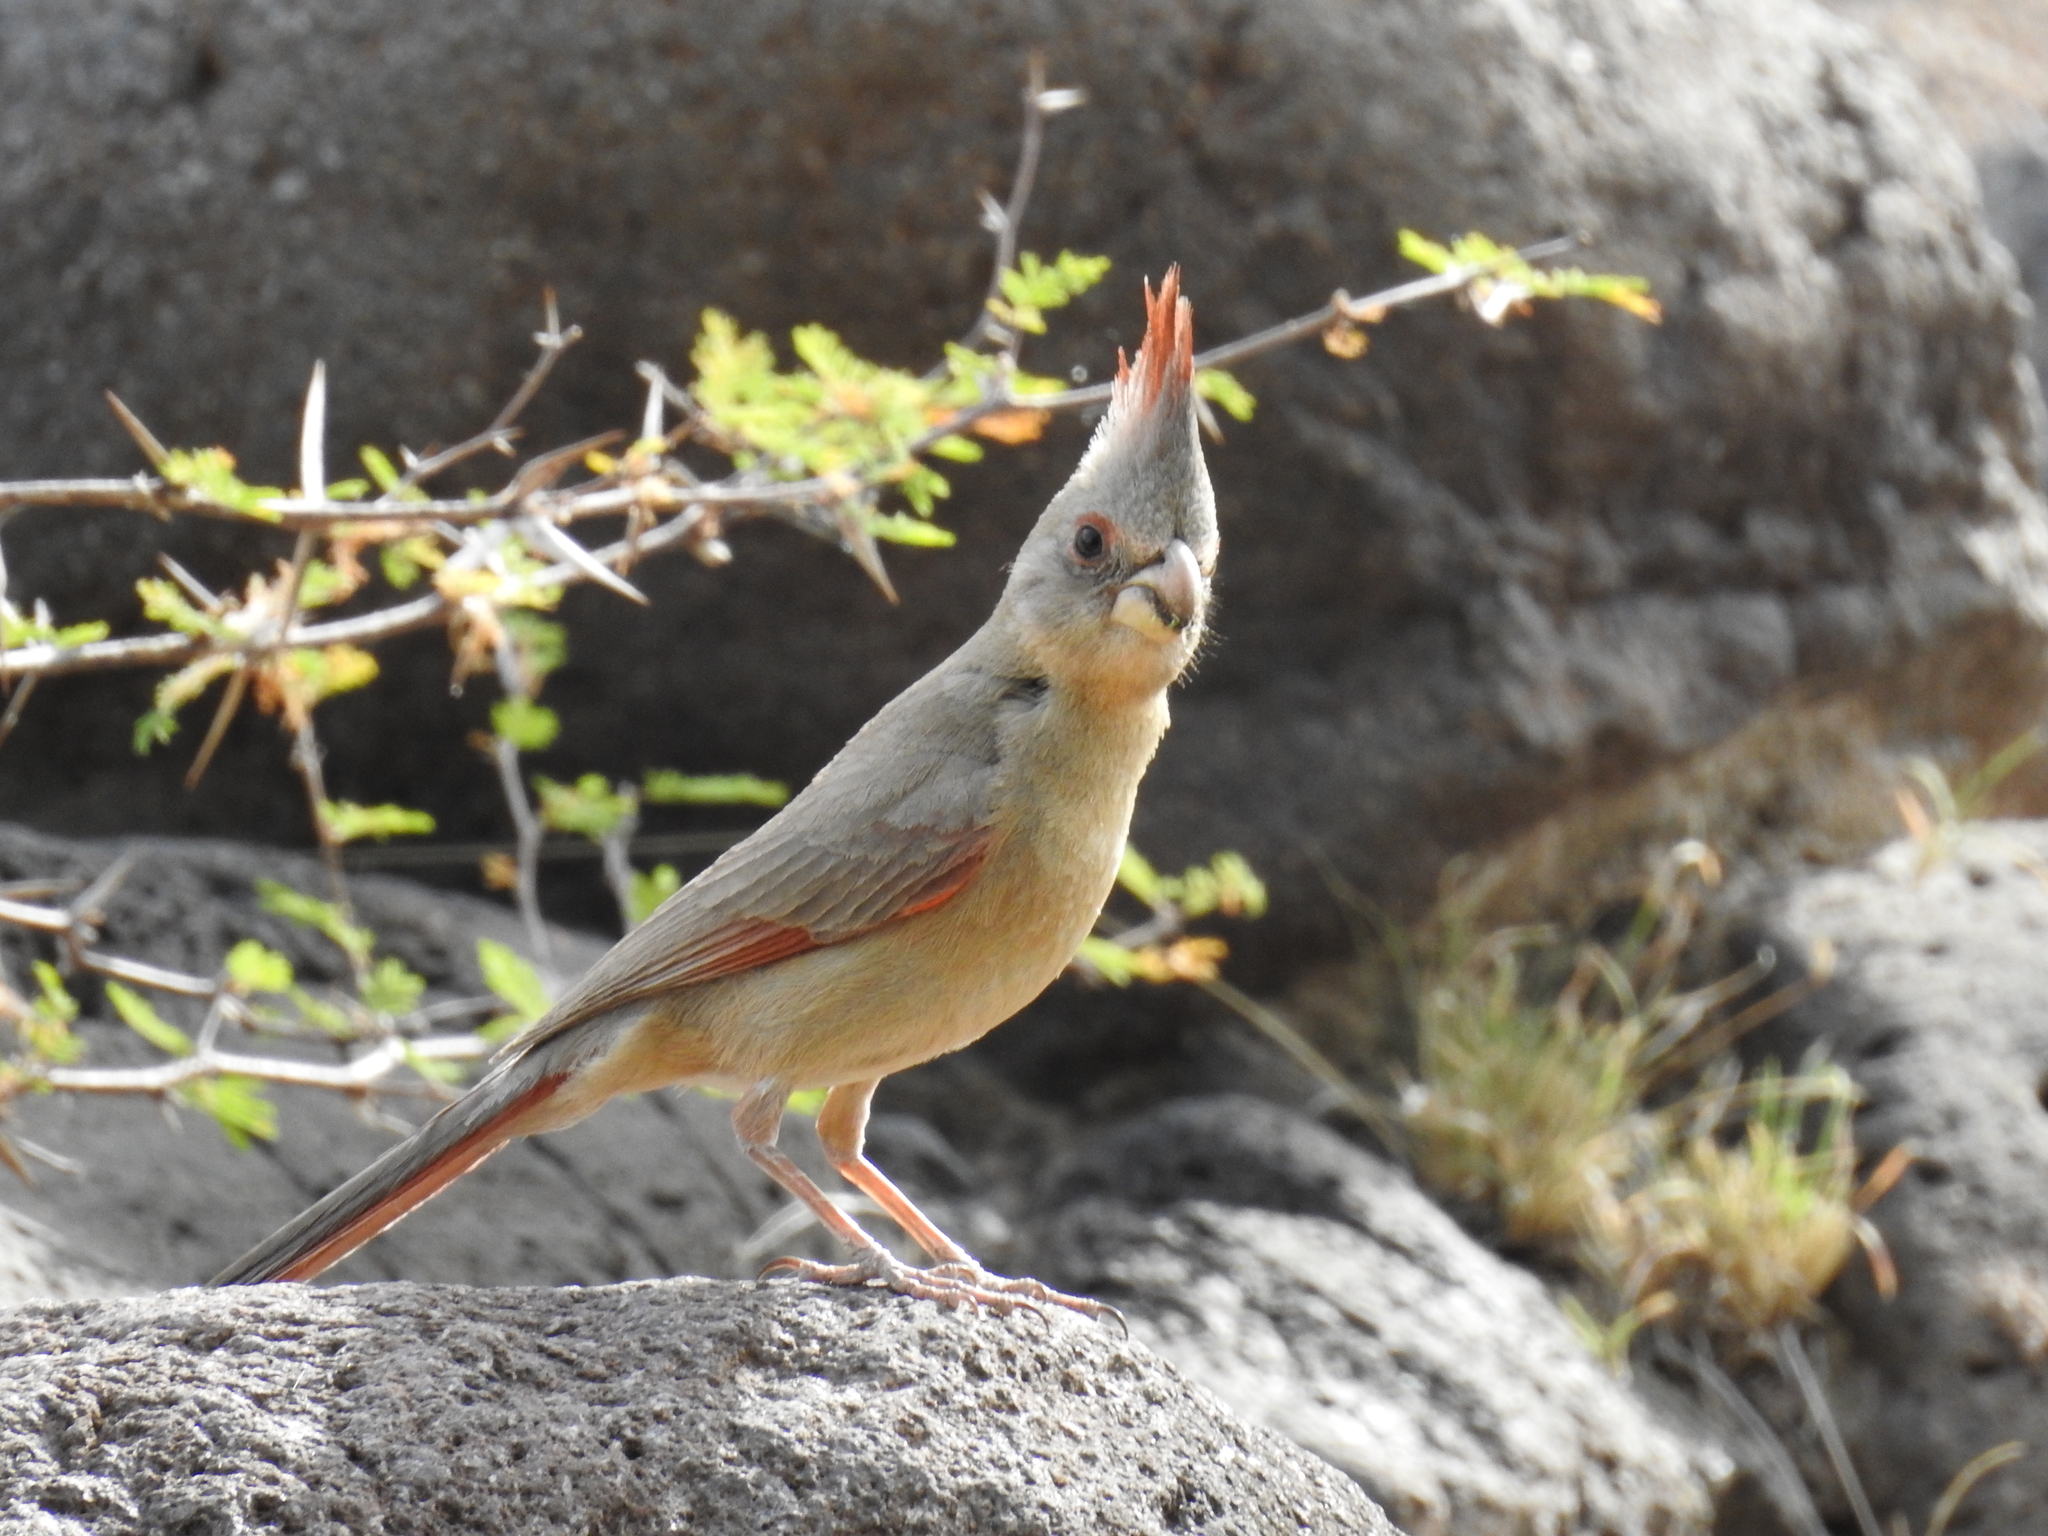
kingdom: Animalia
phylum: Chordata
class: Aves
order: Passeriformes
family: Cardinalidae
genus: Cardinalis
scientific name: Cardinalis sinuatus
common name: Pyrrhuloxia
